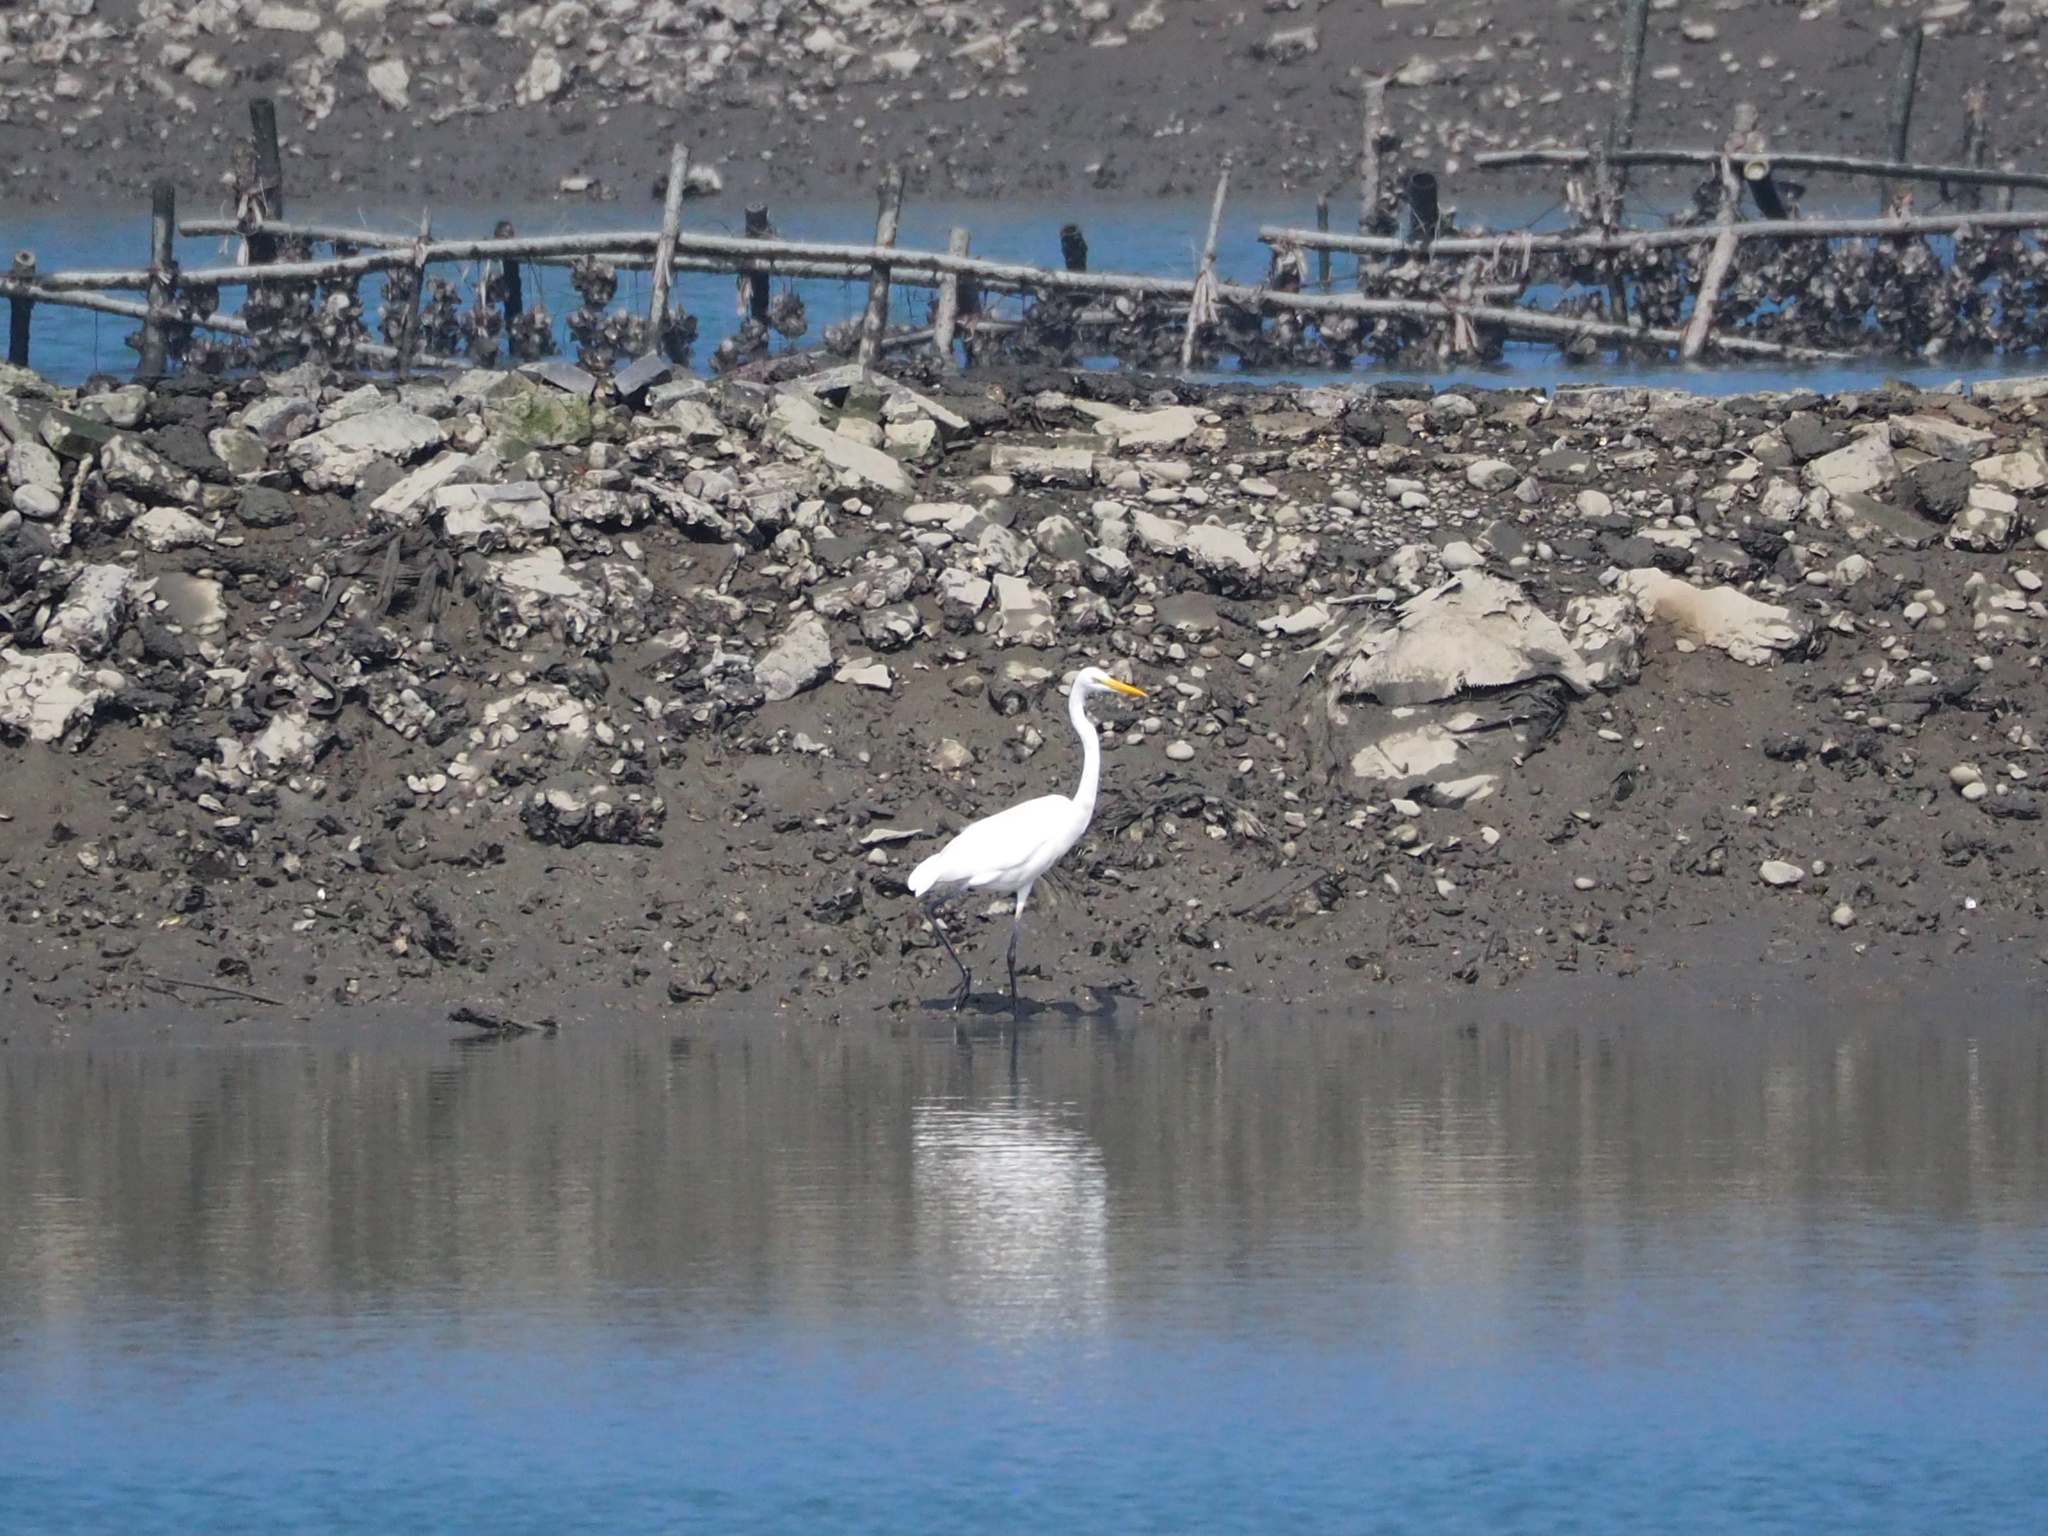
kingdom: Animalia
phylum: Chordata
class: Aves
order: Pelecaniformes
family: Ardeidae
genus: Ardea
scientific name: Ardea alba
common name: Great egret
